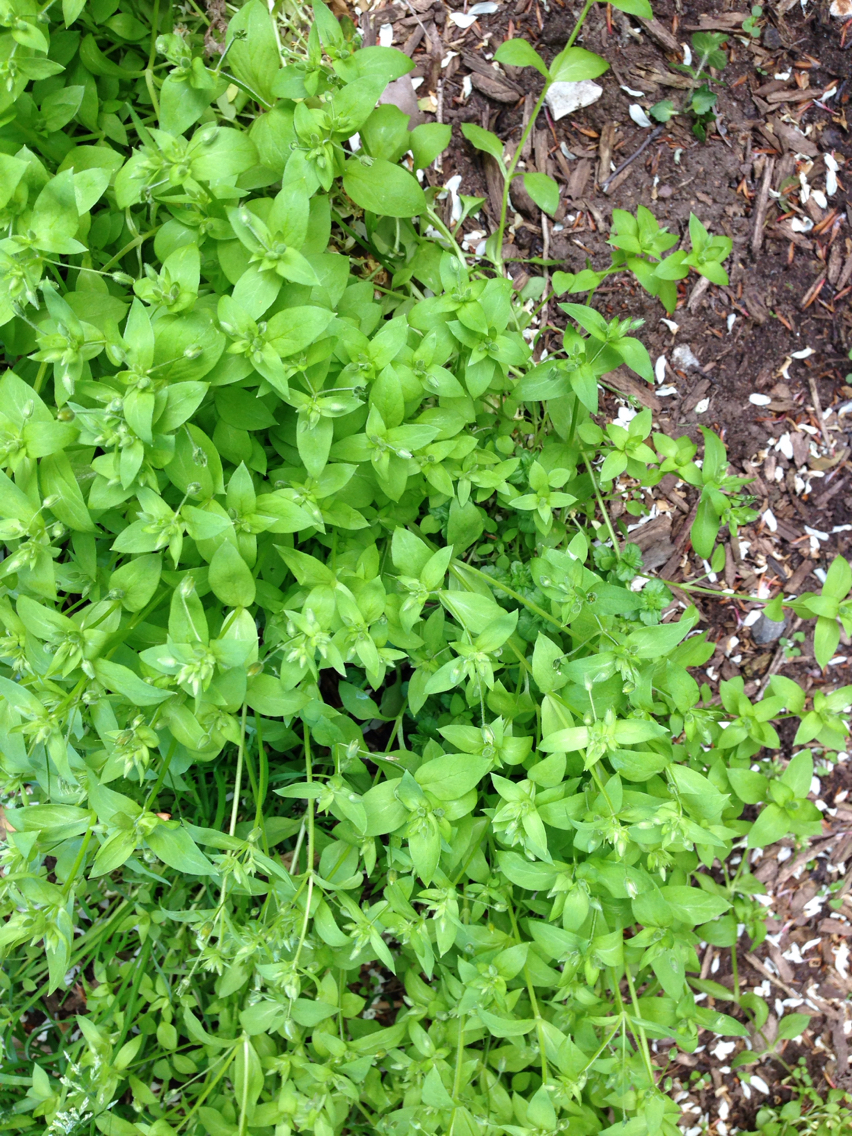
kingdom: Plantae
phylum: Tracheophyta
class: Magnoliopsida
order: Caryophyllales
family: Caryophyllaceae
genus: Stellaria
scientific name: Stellaria media
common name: Common chickweed
